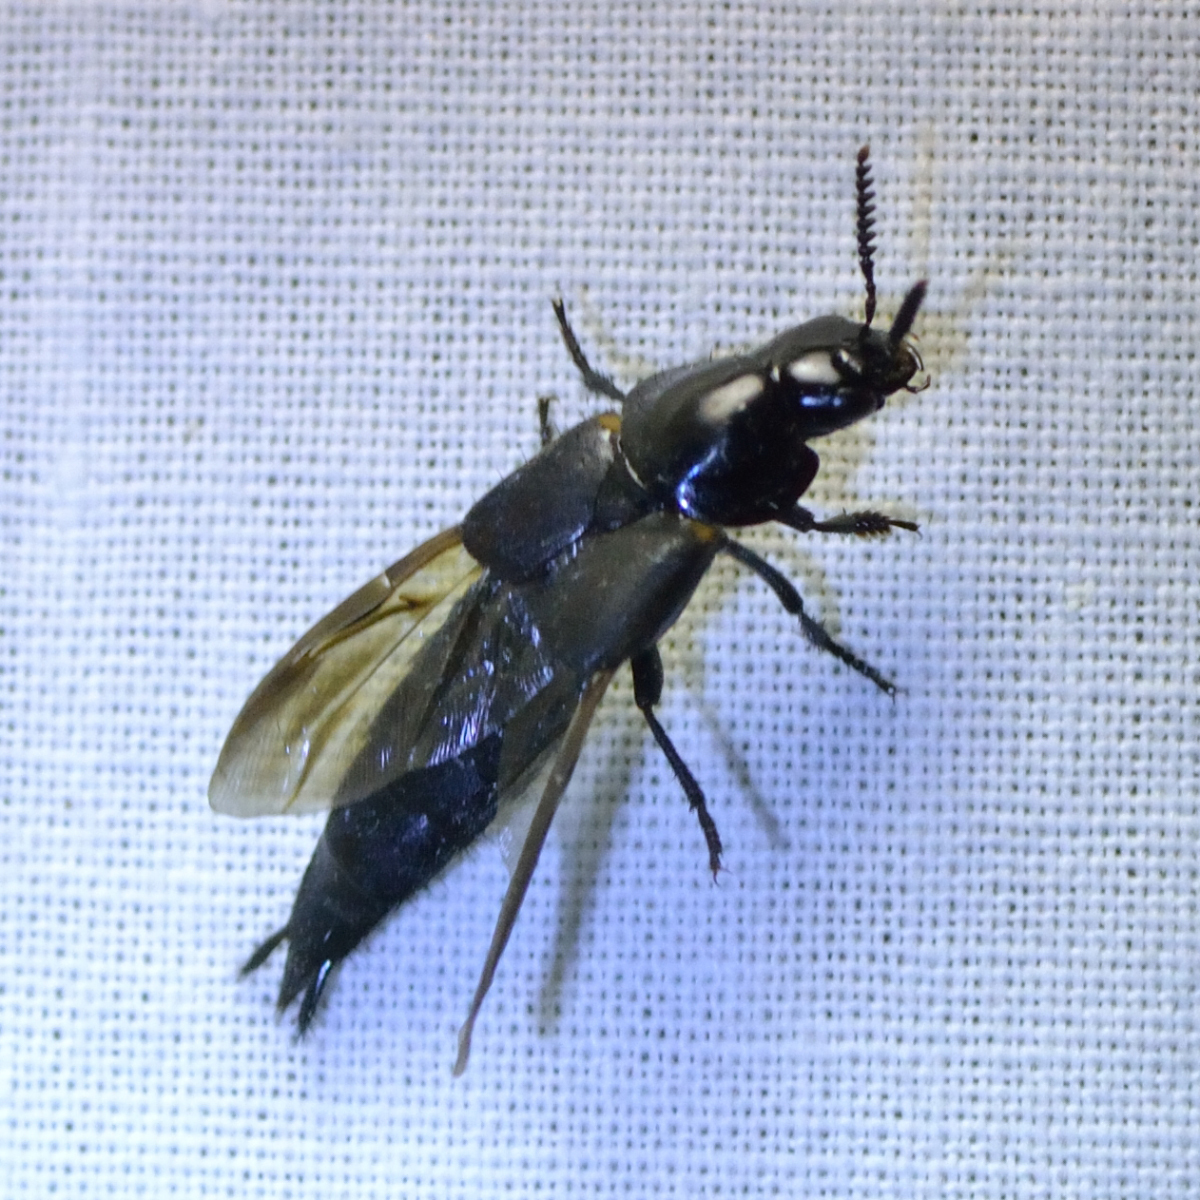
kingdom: Animalia
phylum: Arthropoda
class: Insecta
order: Coleoptera
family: Staphylinidae
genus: Quedius
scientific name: Quedius dilatatus
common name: Hornet rove-beetle
